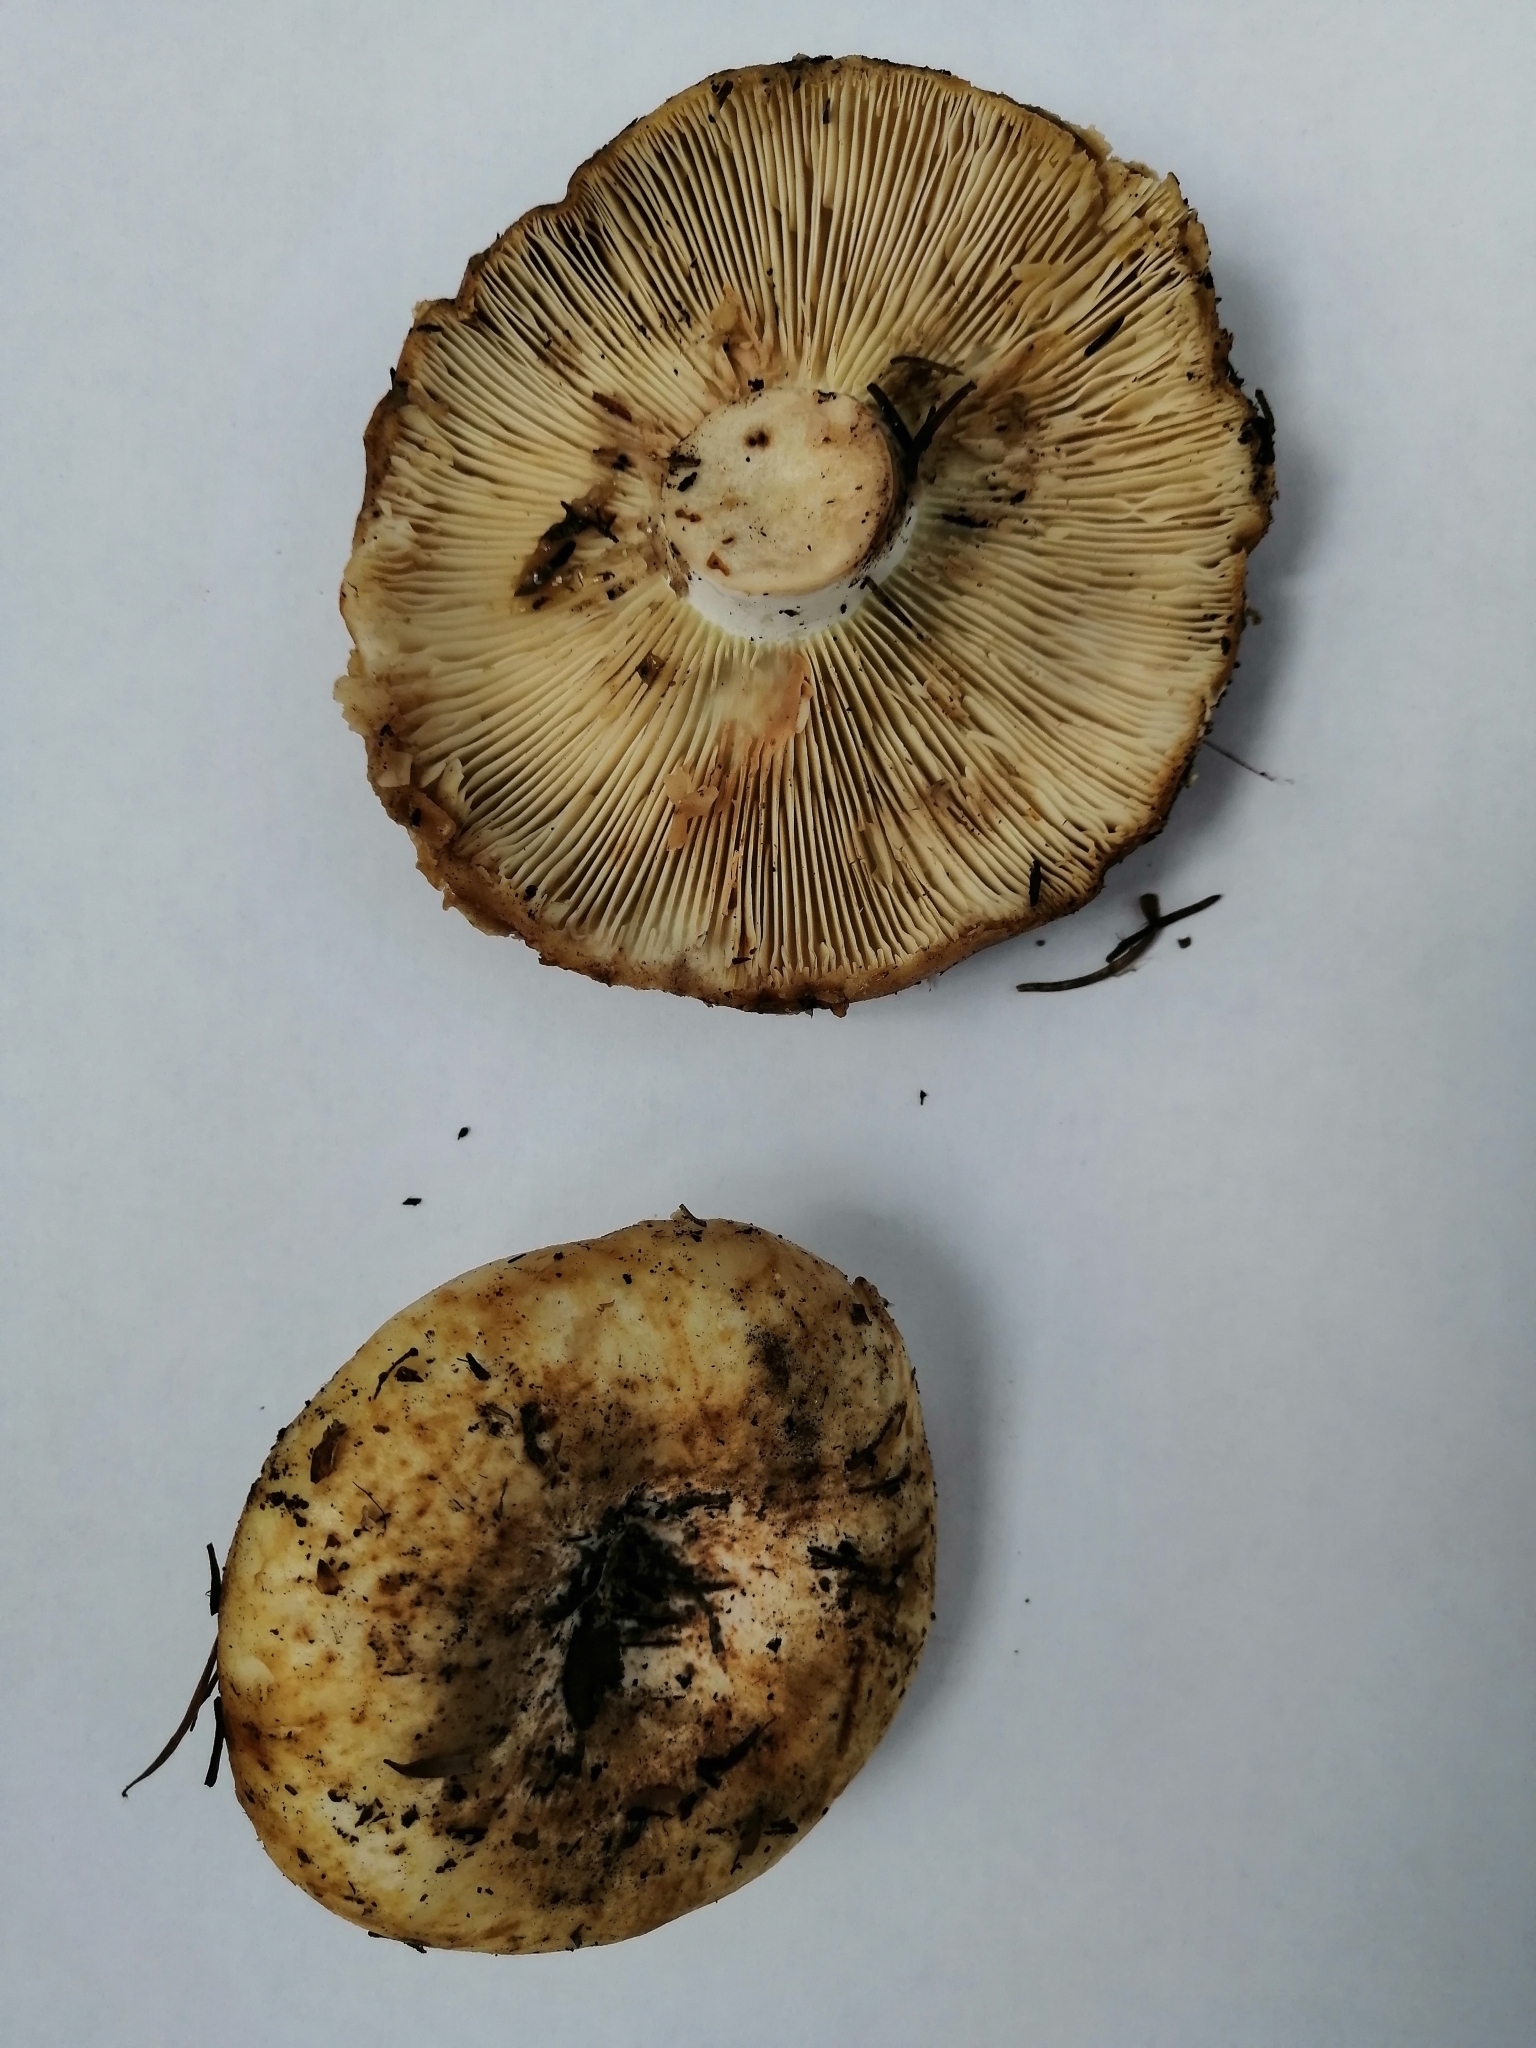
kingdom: Fungi
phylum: Basidiomycota
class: Agaricomycetes
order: Russulales
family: Russulaceae
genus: Russula
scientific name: Russula delica
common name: Milk white brittlegill
